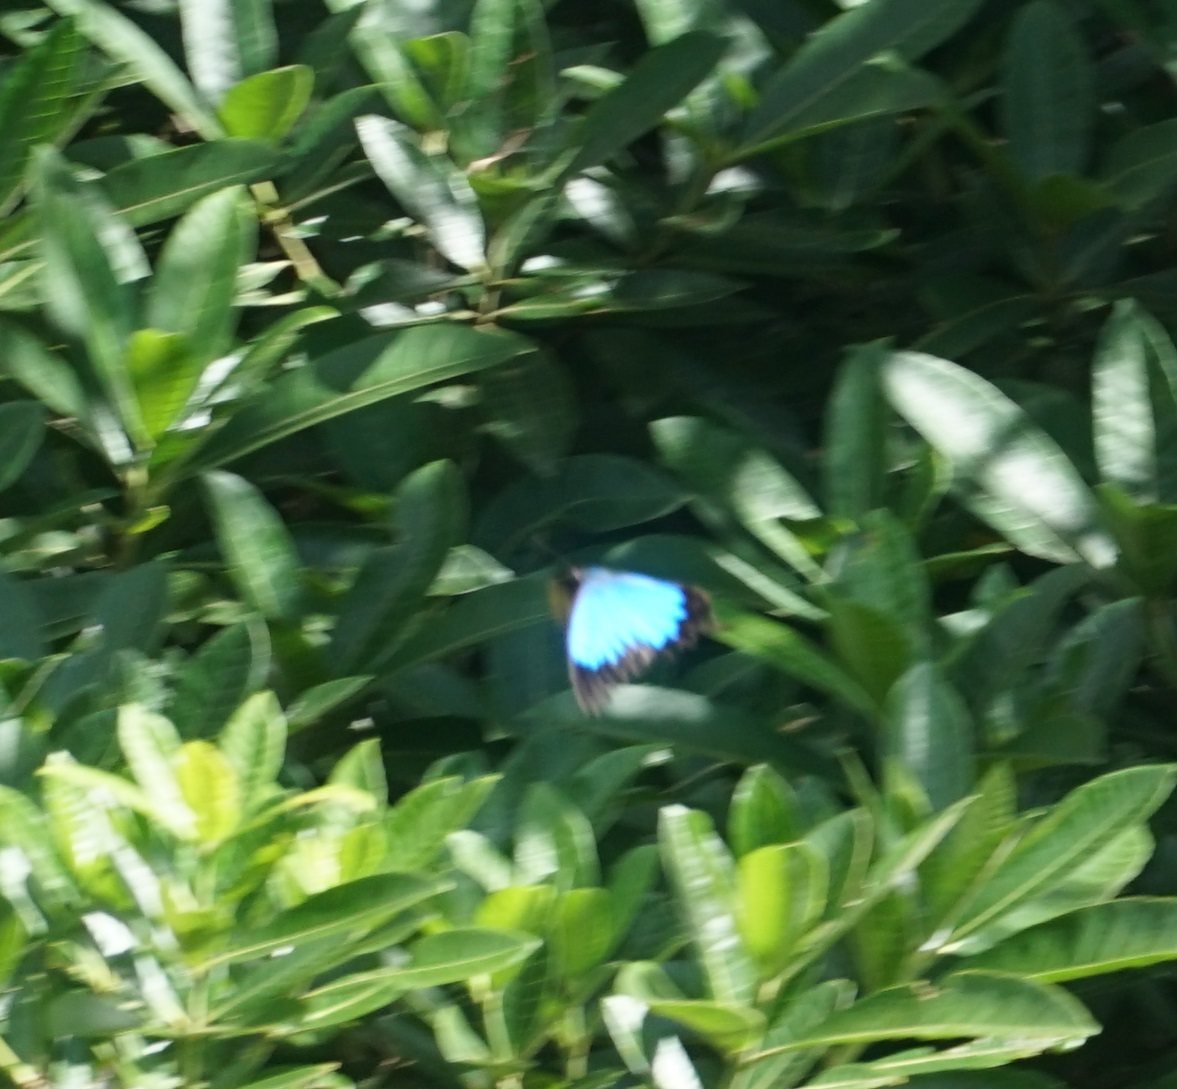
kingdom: Animalia
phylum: Arthropoda
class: Insecta
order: Lepidoptera
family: Papilionidae
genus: Papilio
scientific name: Papilio ulysses
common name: Blue emperor
